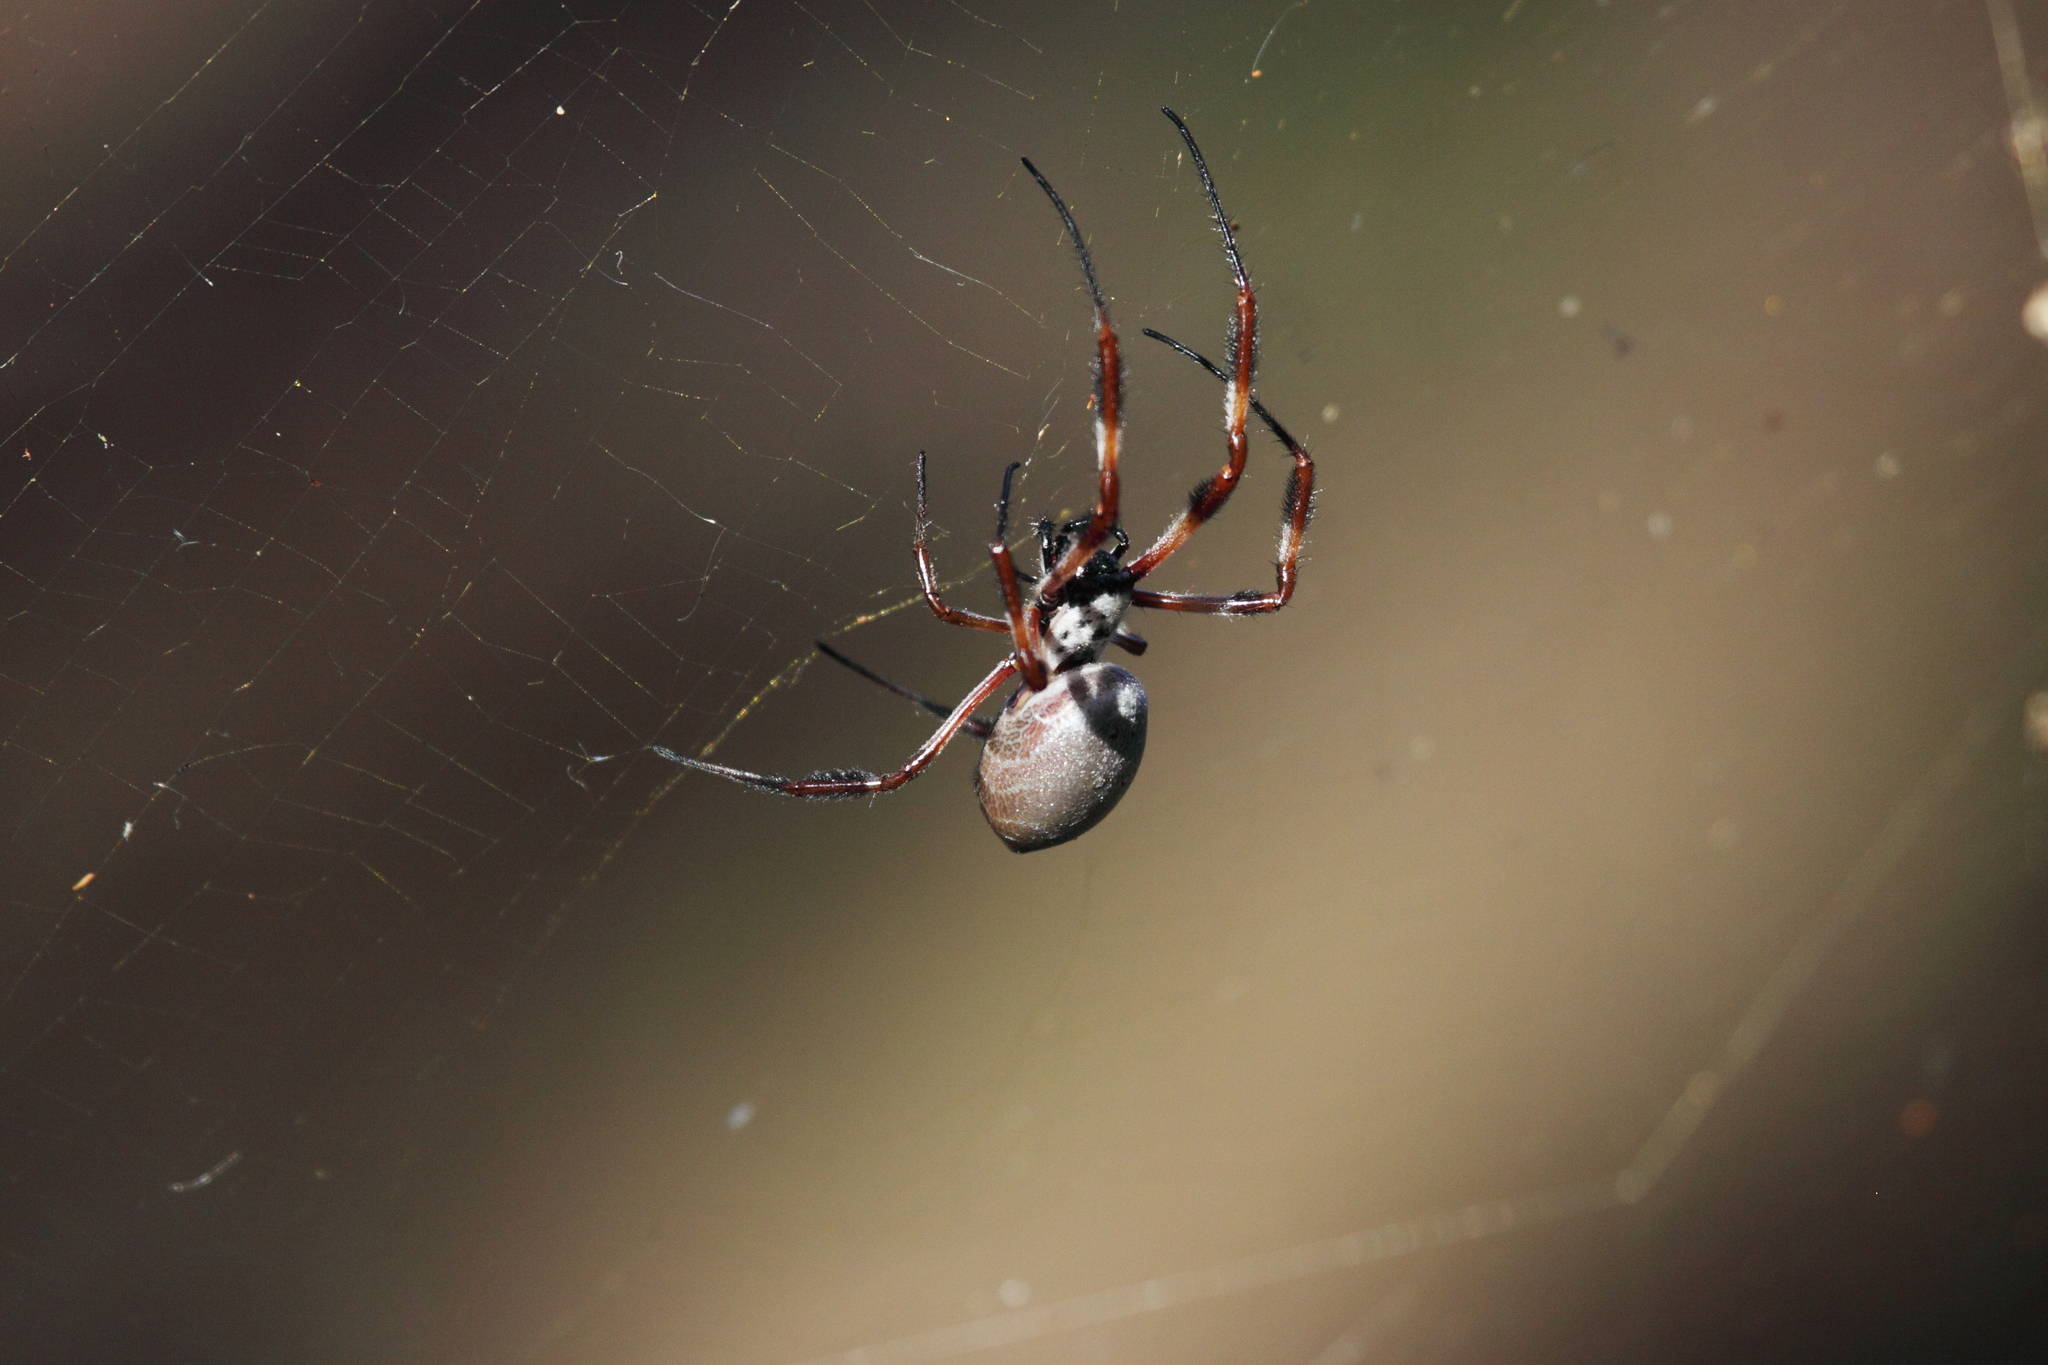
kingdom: Animalia
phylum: Arthropoda
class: Arachnida
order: Araneae
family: Araneidae
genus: Trichonephila
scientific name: Trichonephila edulis
